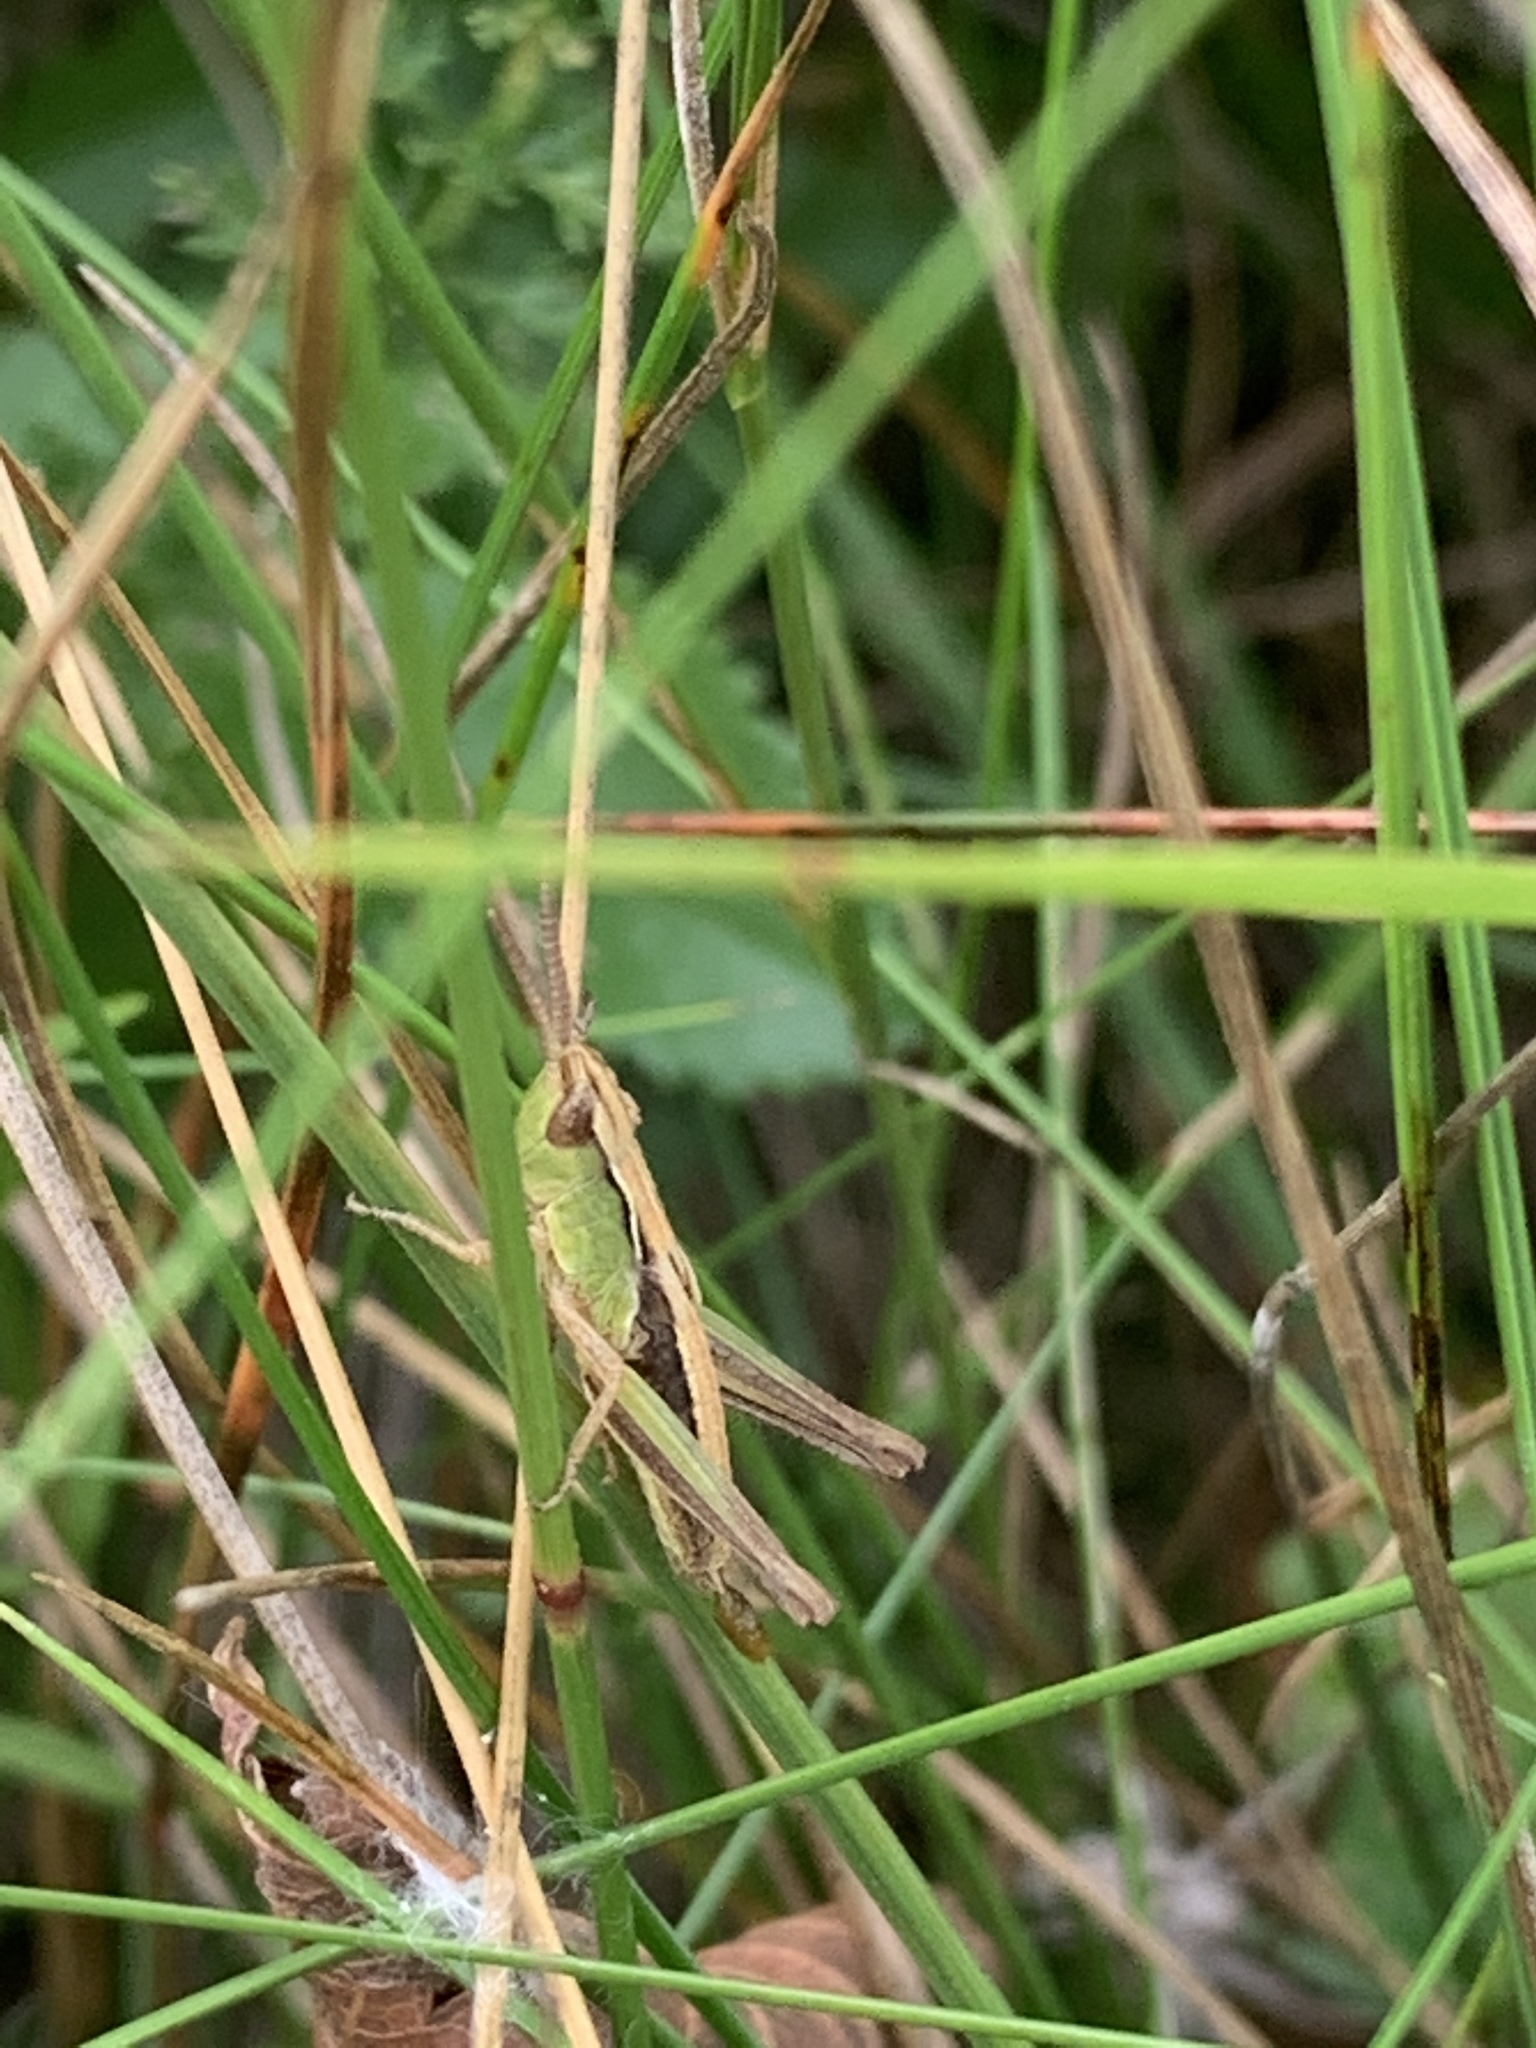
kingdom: Animalia
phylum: Arthropoda
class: Insecta
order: Orthoptera
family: Acrididae
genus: Pseudochorthippus
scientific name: Pseudochorthippus curtipennis
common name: Marsh meadow grasshopper
